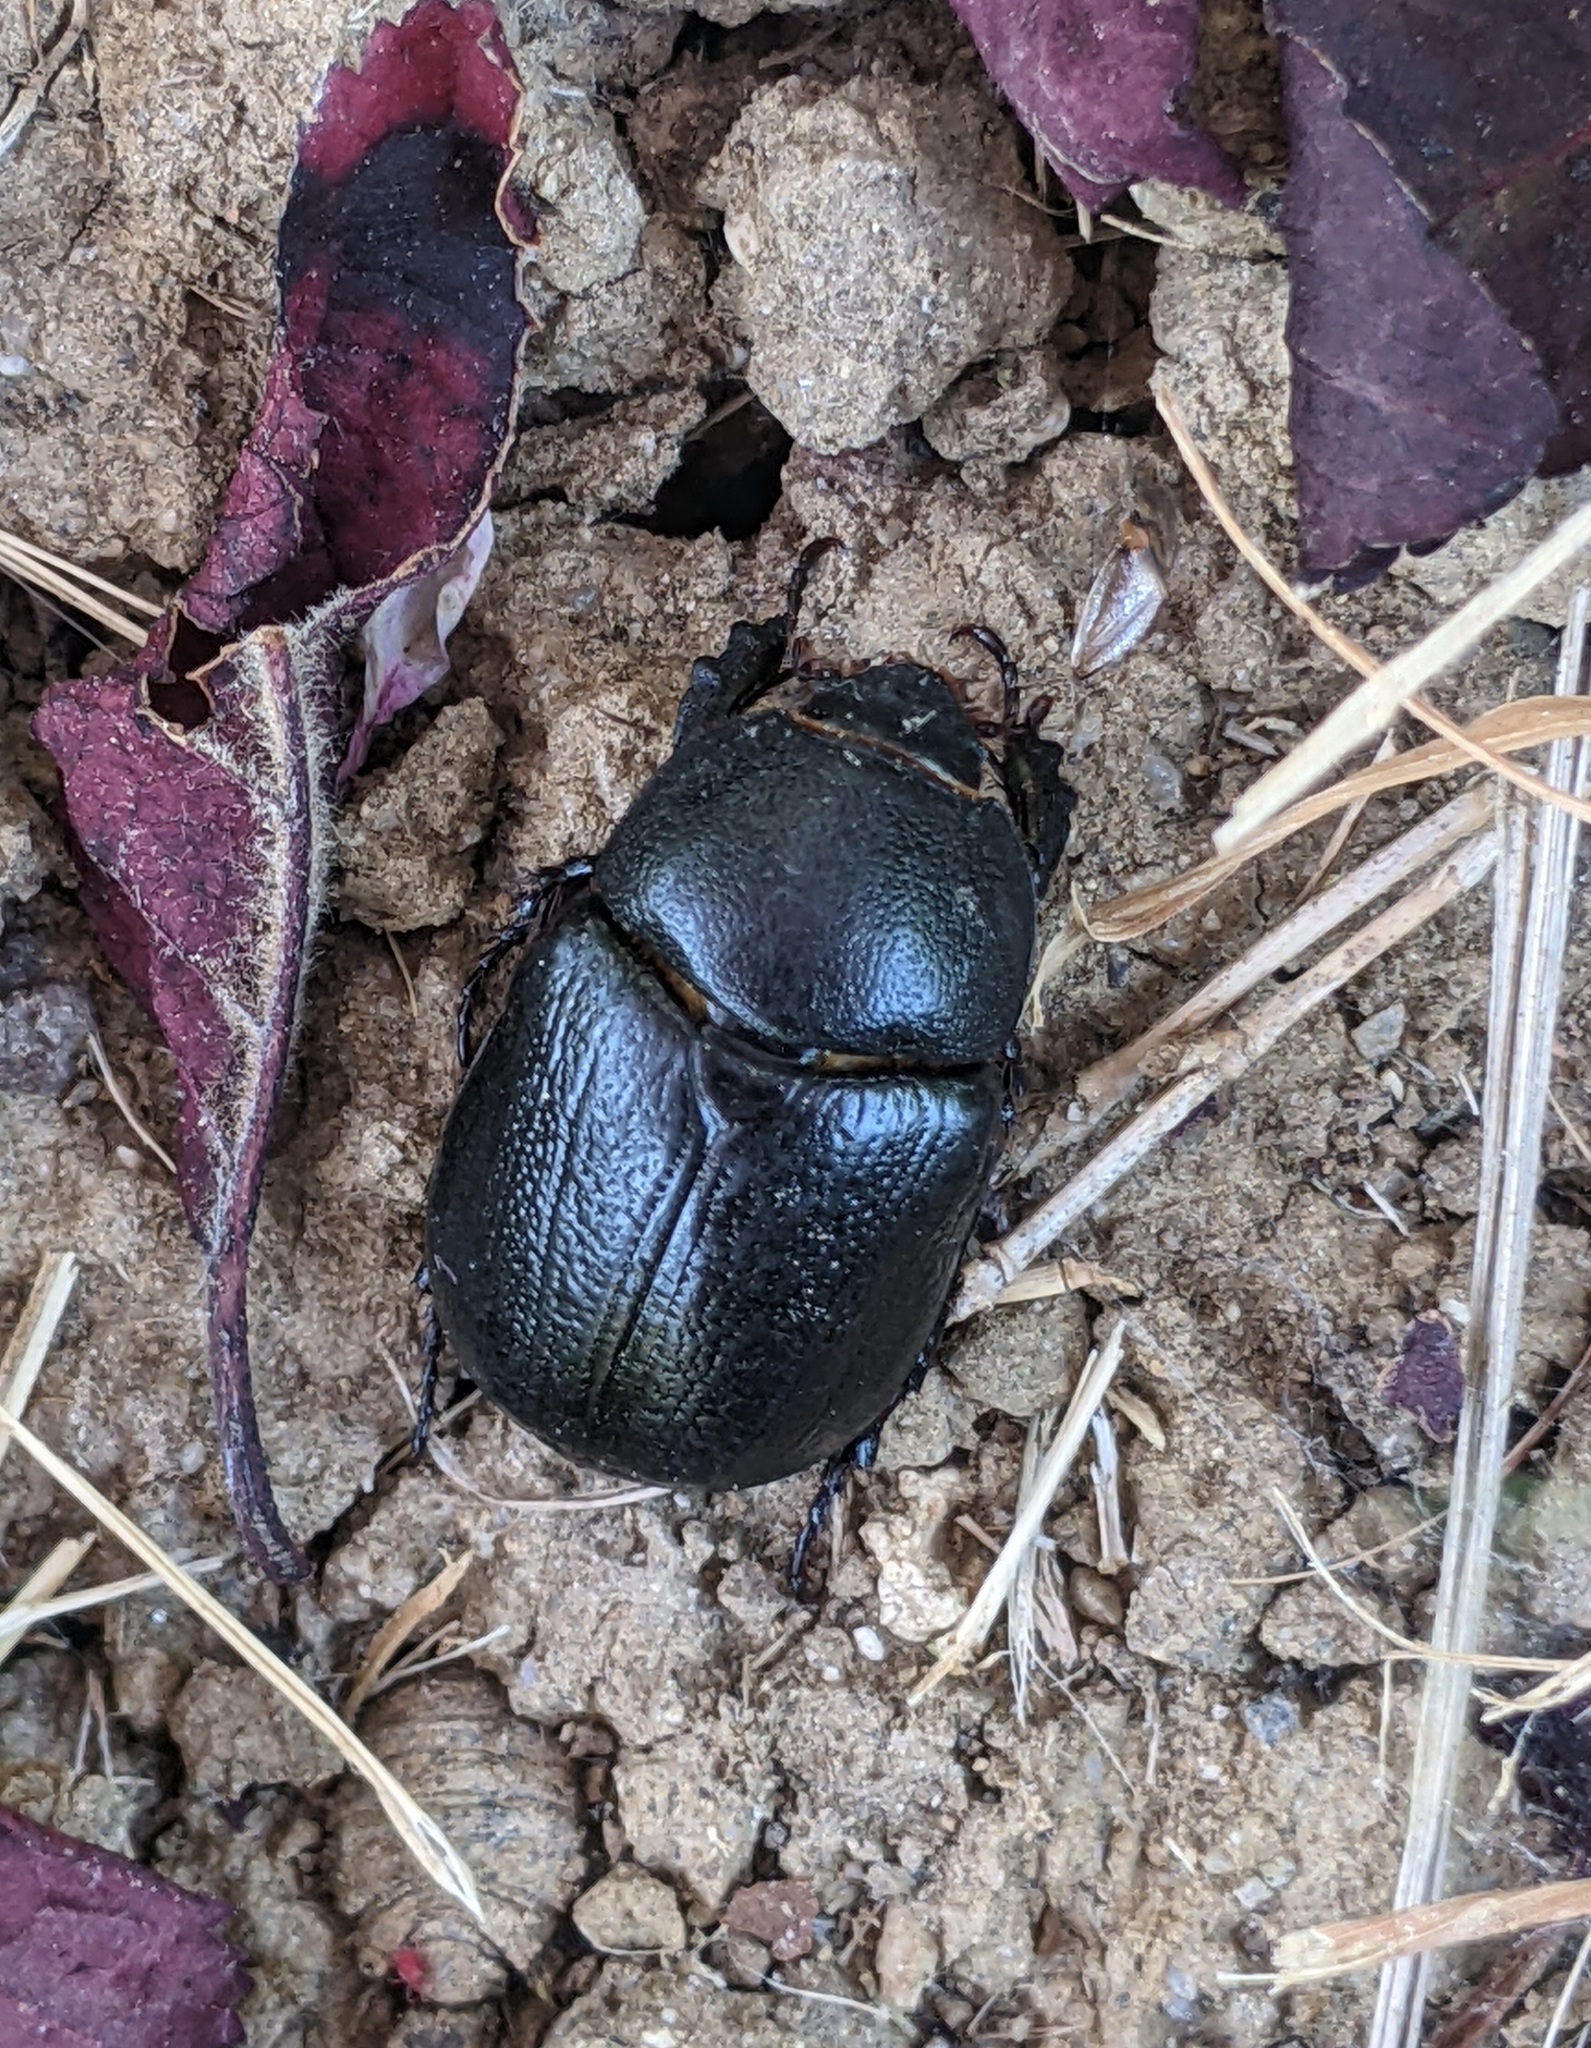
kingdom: Animalia
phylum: Arthropoda
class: Insecta
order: Coleoptera
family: Scarabaeidae
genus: Pentodon
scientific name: Pentodon bidens
